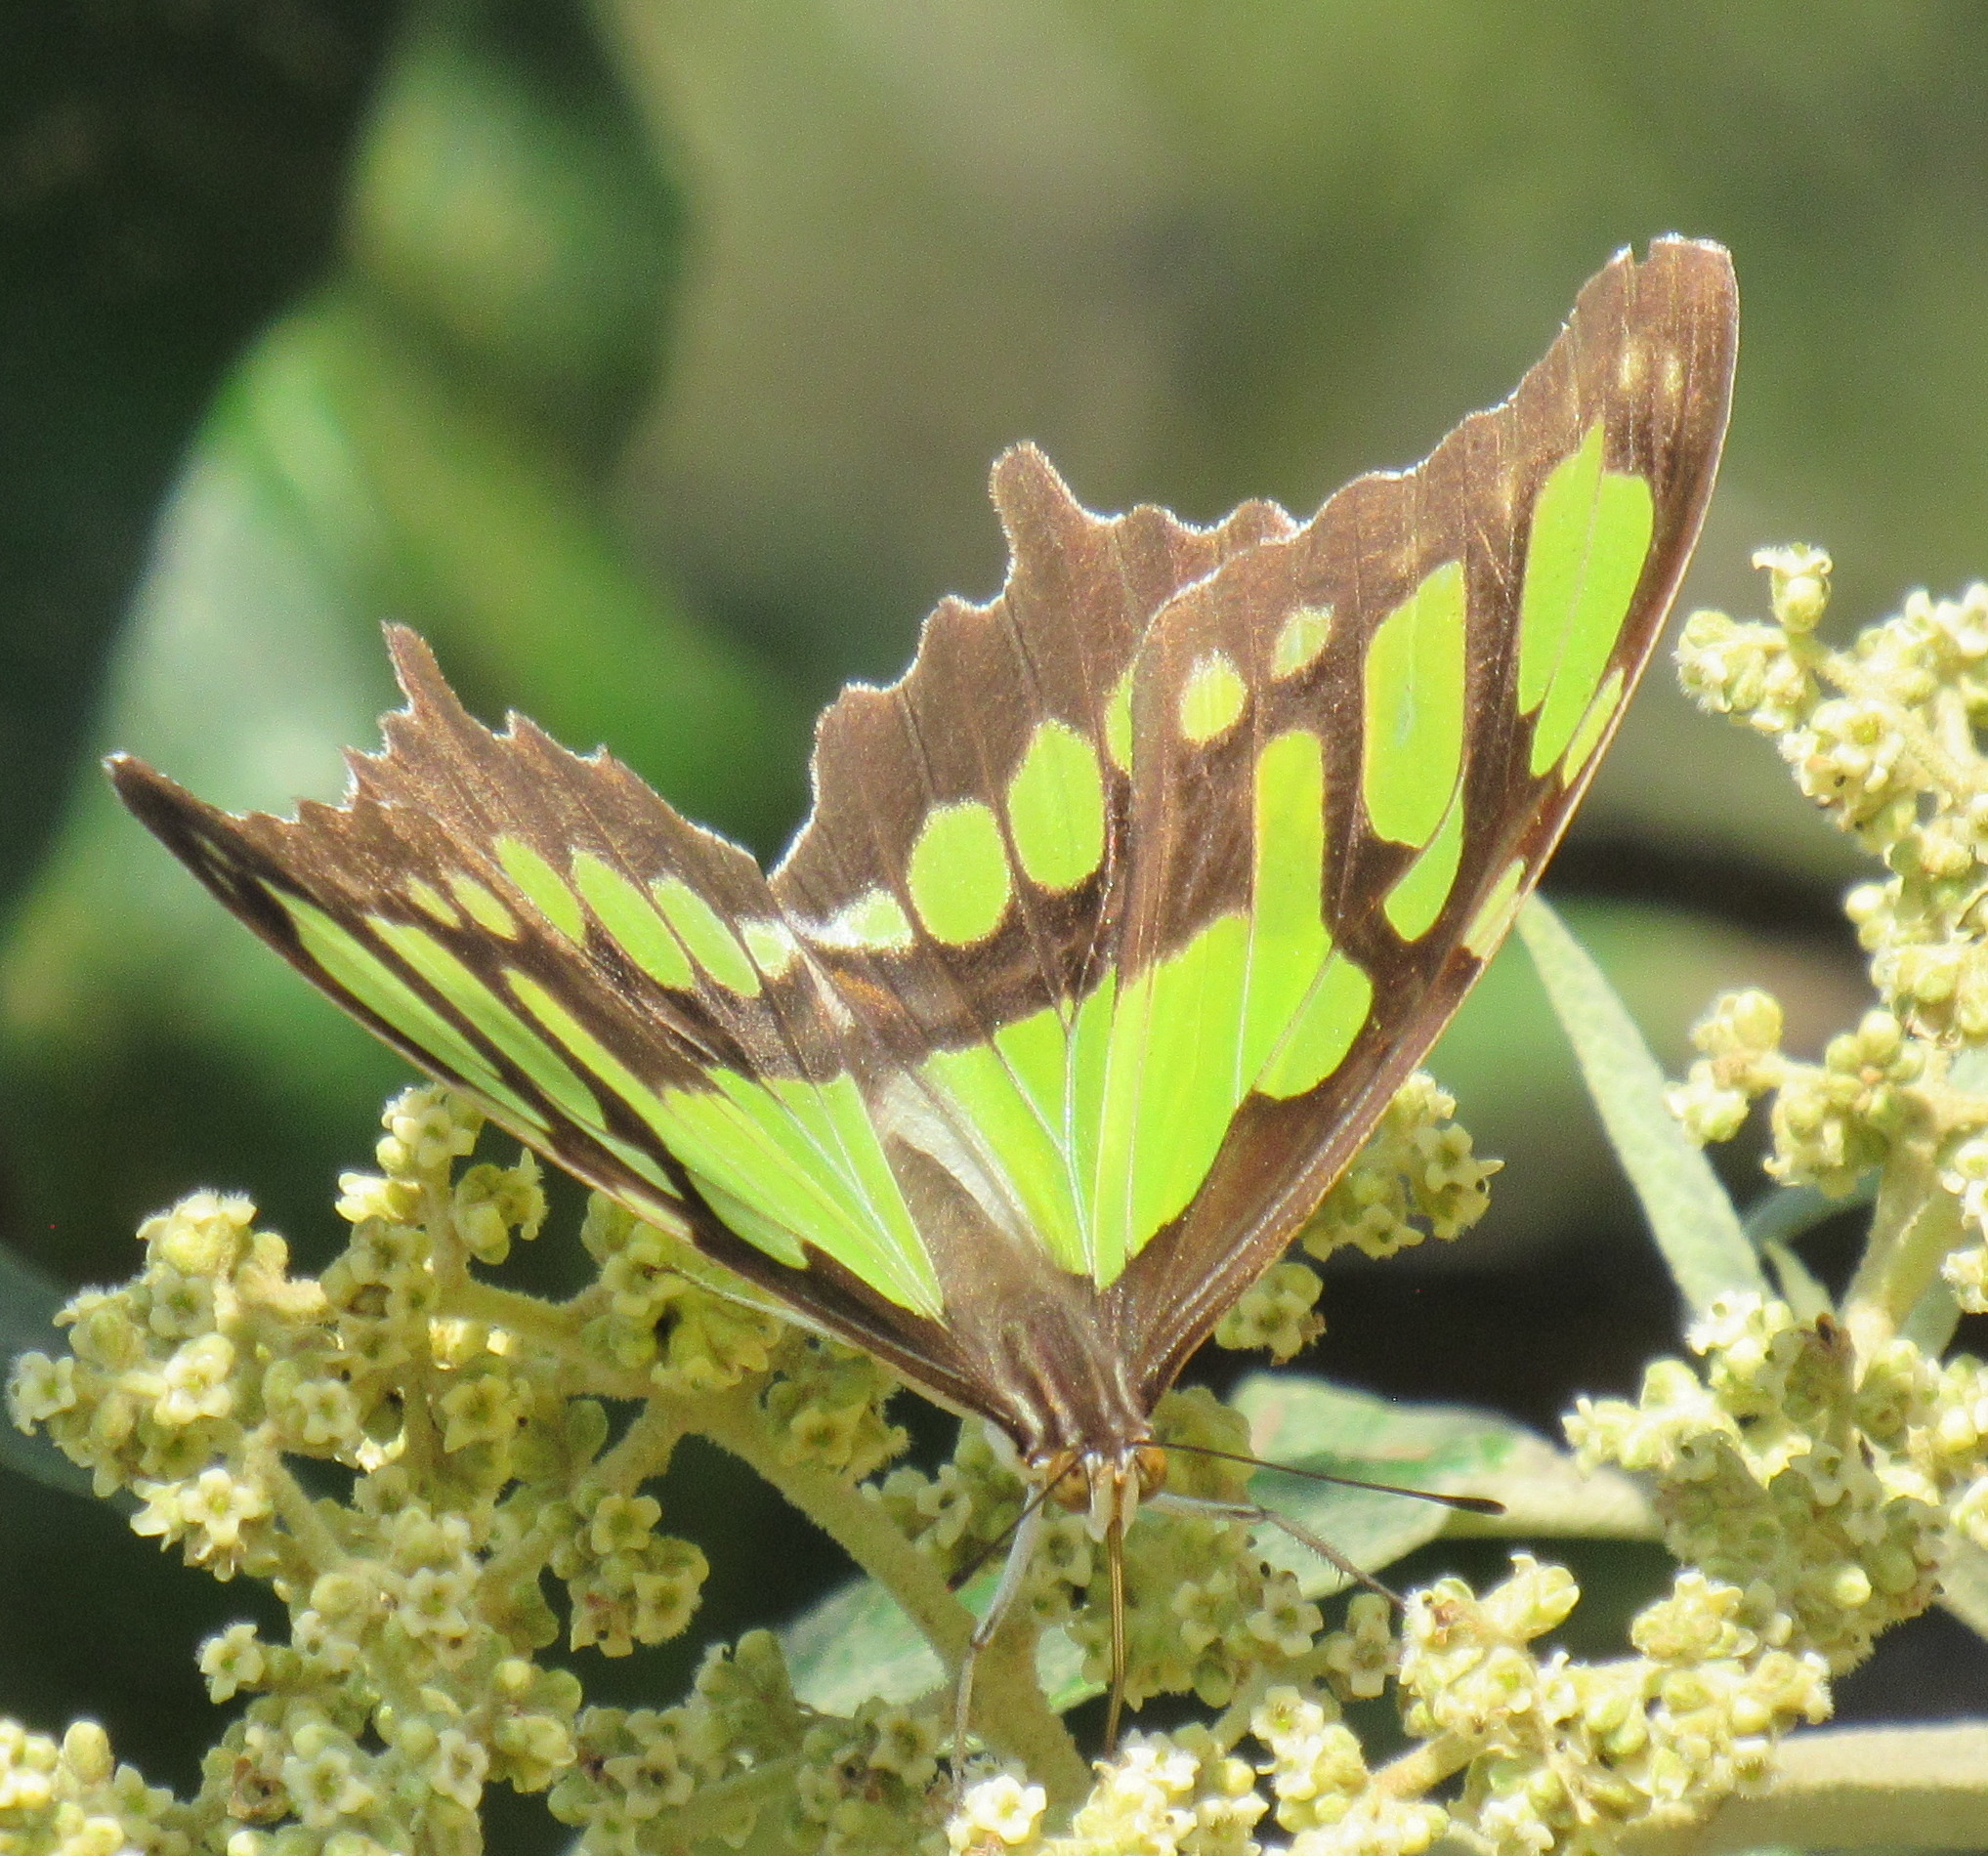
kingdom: Animalia
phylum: Arthropoda
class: Insecta
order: Lepidoptera
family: Nymphalidae
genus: Siproeta
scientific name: Siproeta stelenes
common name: Malachite
